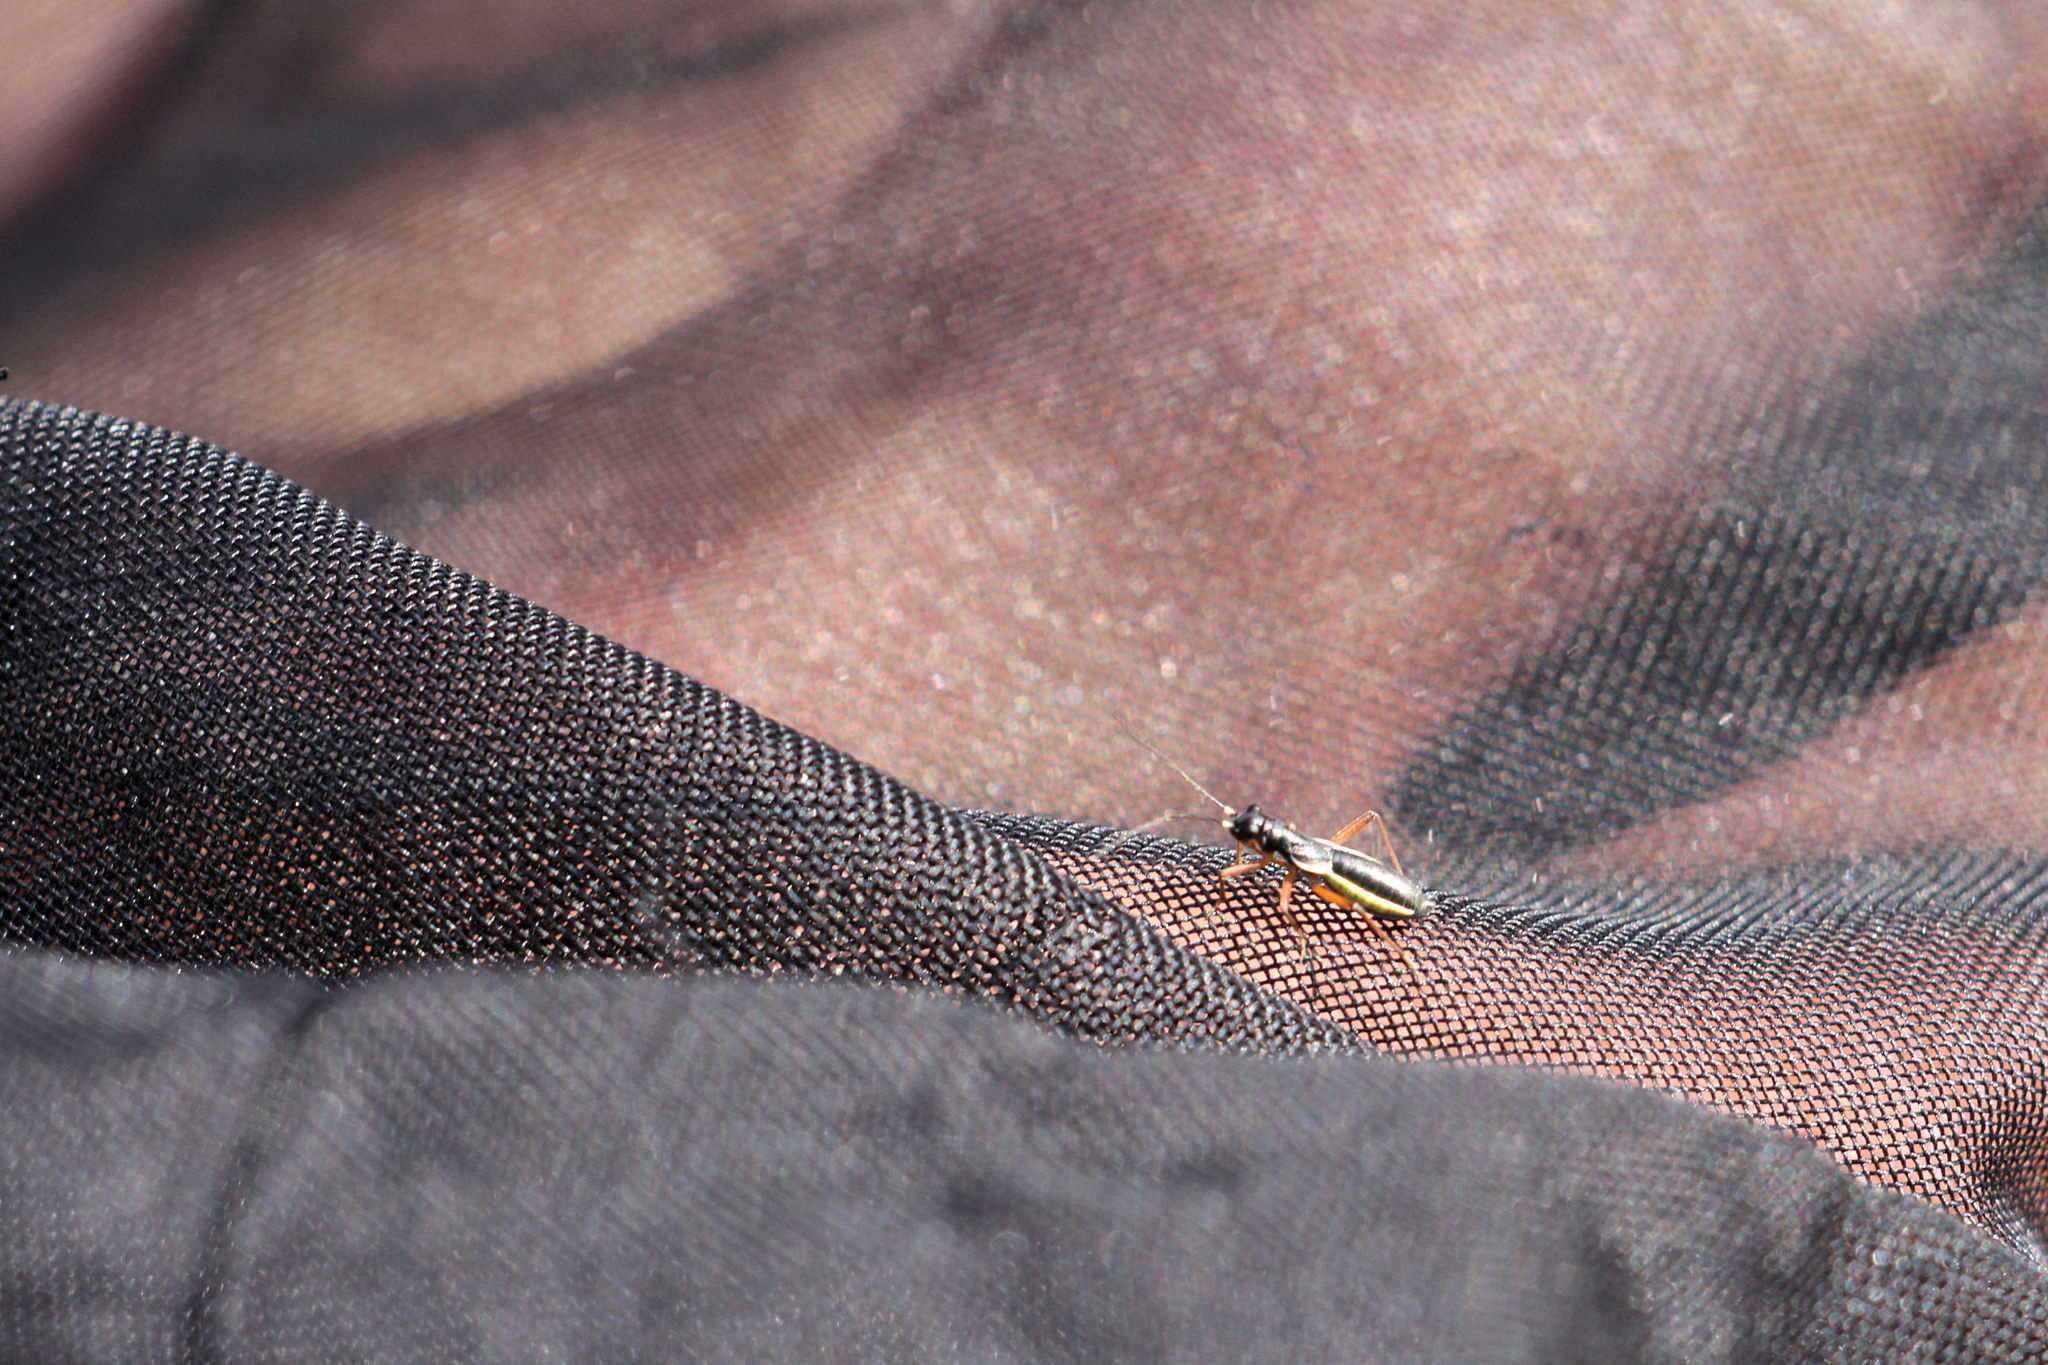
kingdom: Animalia
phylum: Arthropoda
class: Insecta
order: Hemiptera
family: Miridae
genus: Pithanus
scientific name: Pithanus maerkelii
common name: Plant bug
